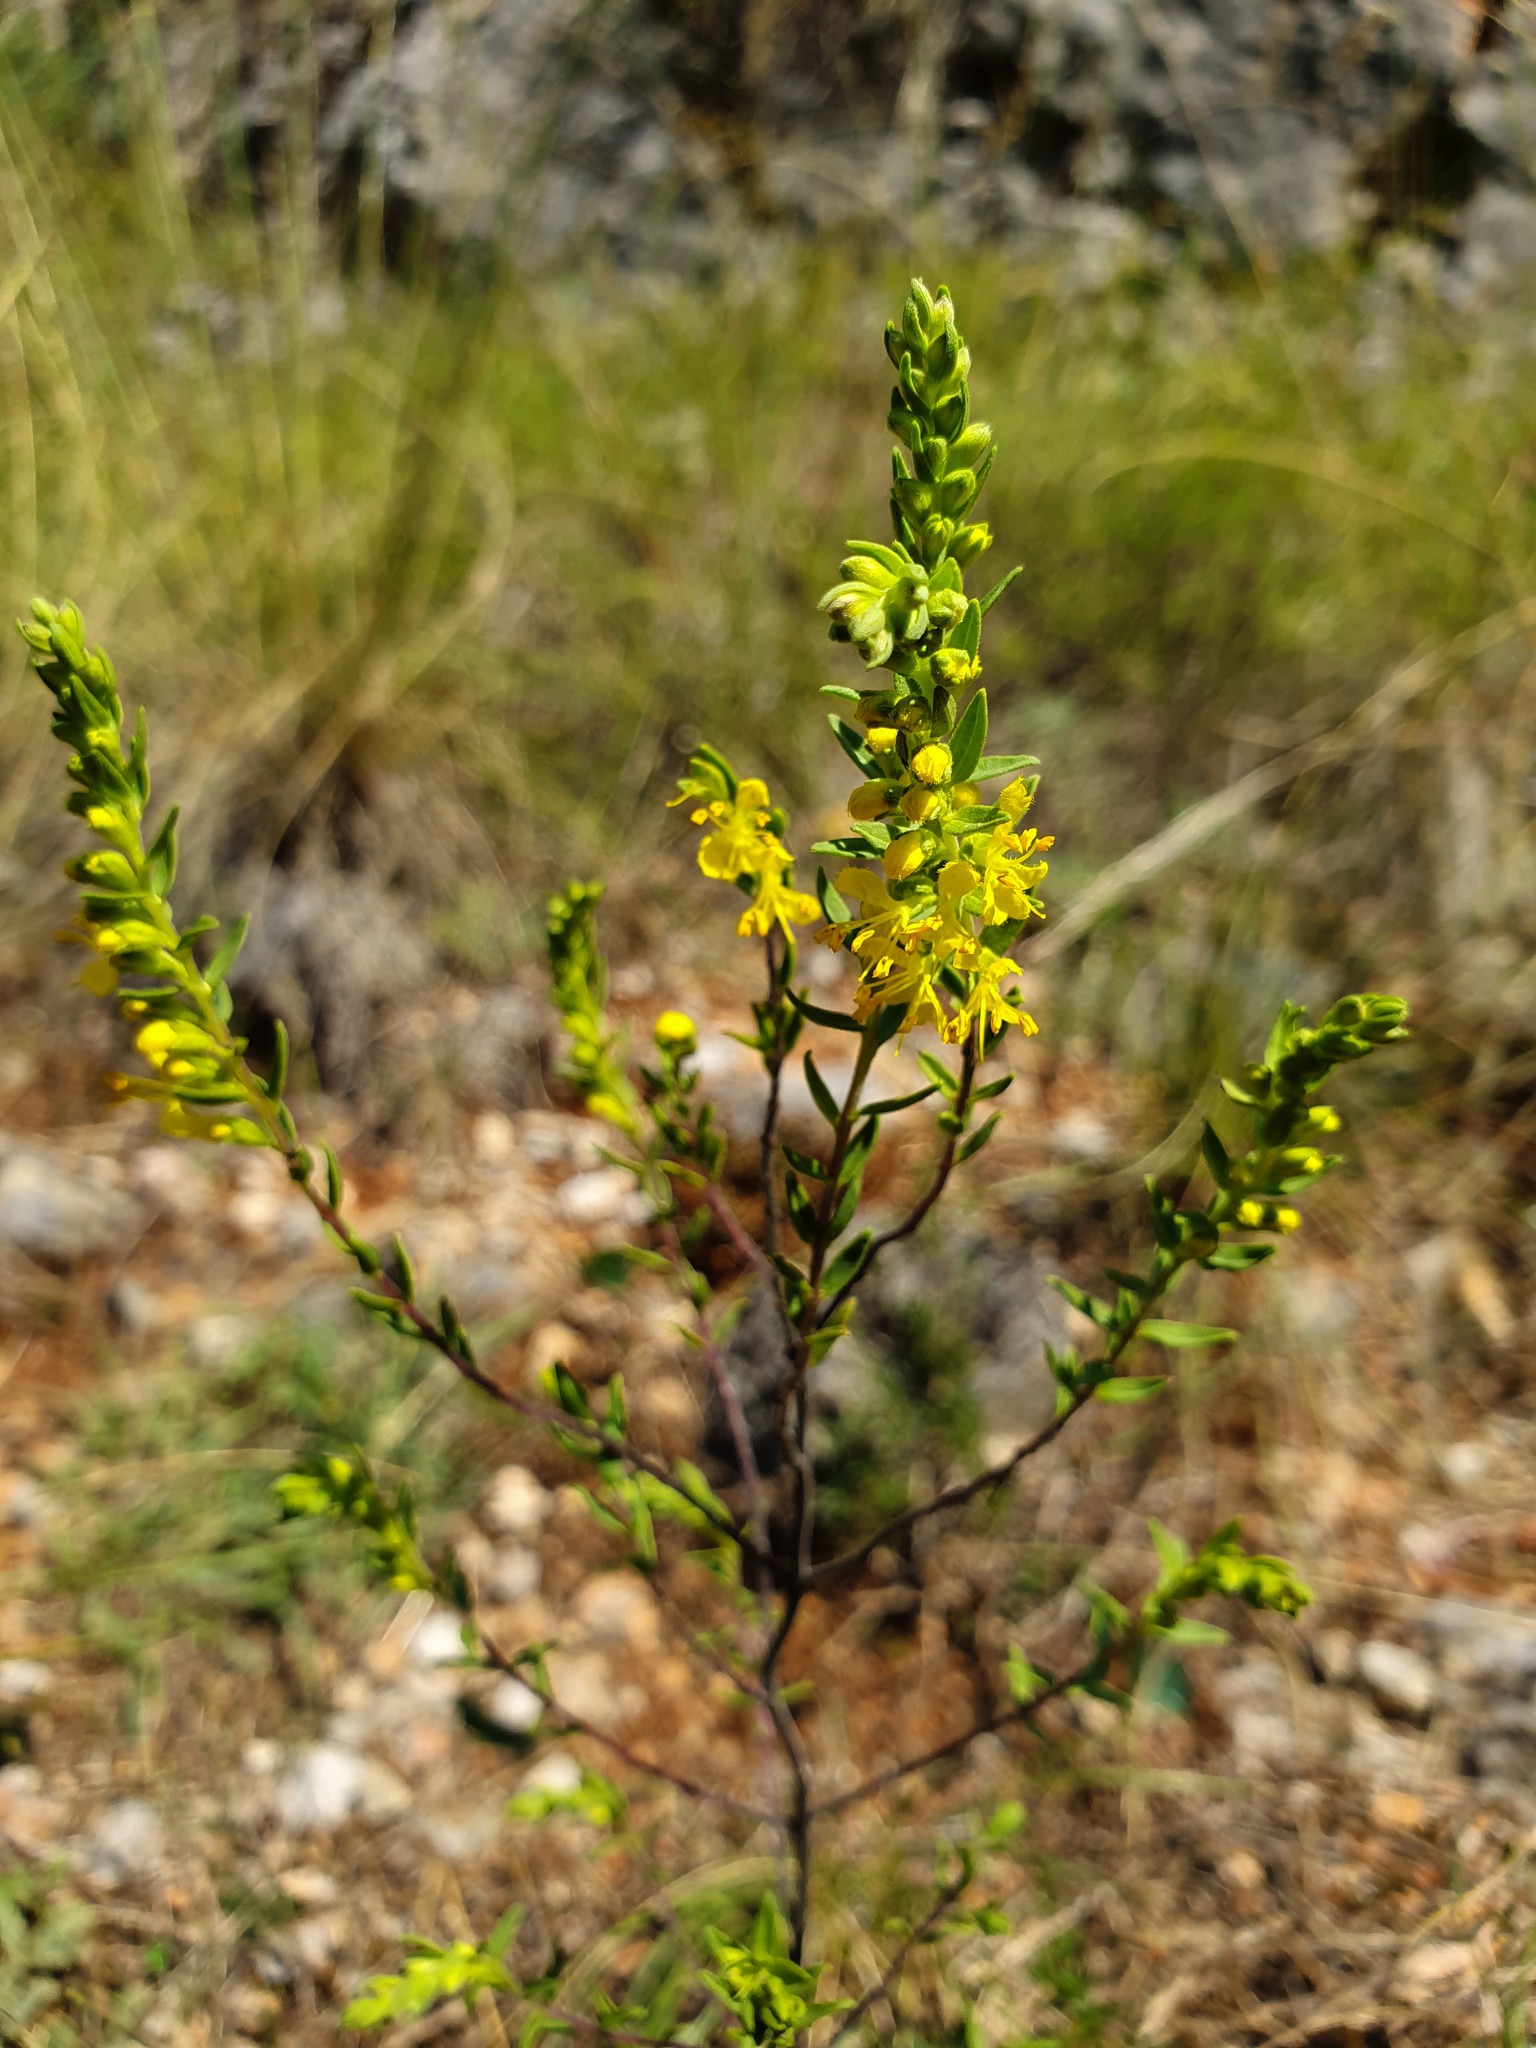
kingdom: Plantae
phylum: Tracheophyta
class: Magnoliopsida
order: Lamiales
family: Orobanchaceae
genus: Odontites
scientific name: Odontites luteus
